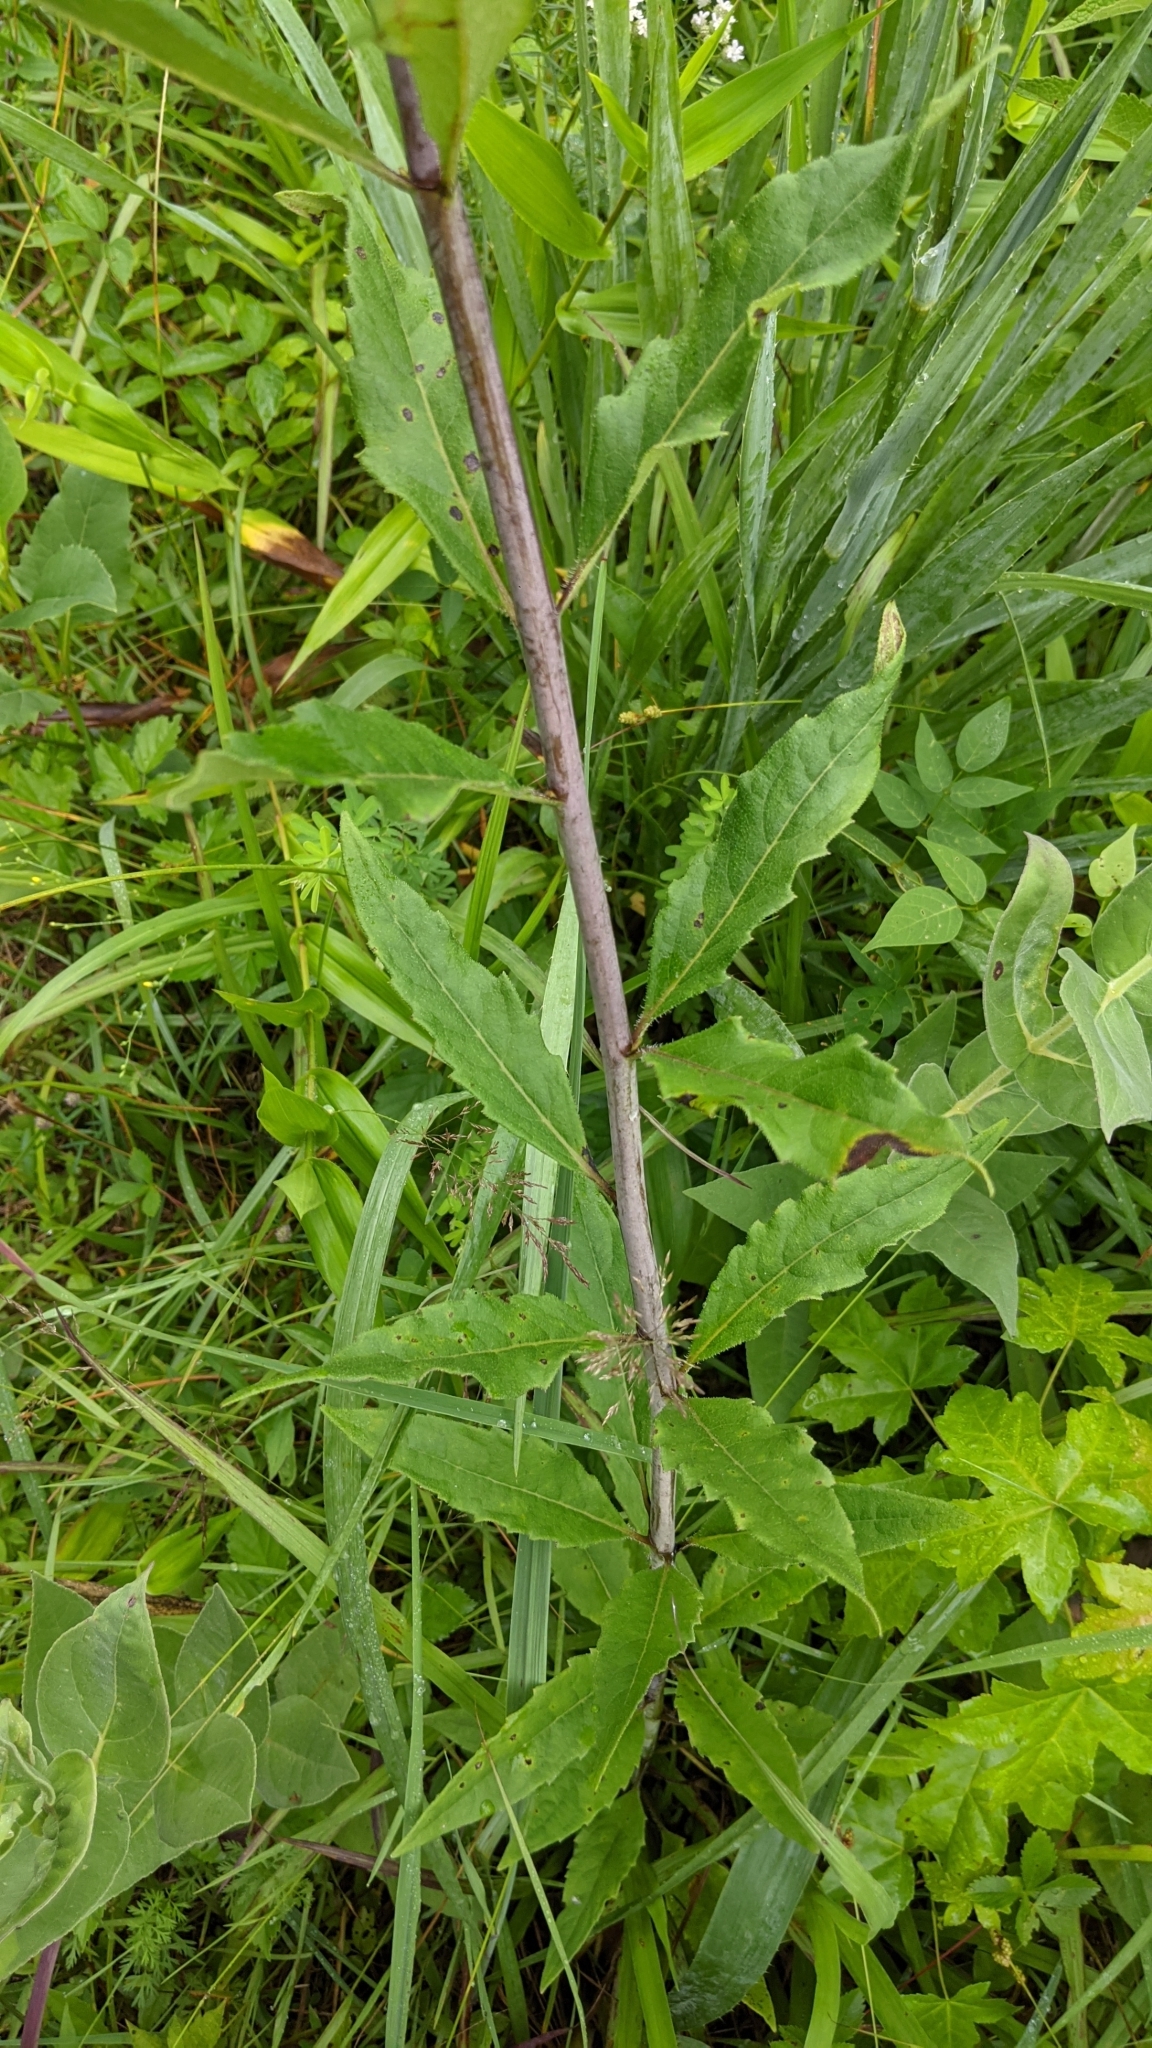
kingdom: Plantae
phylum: Tracheophyta
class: Magnoliopsida
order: Asterales
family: Asteraceae
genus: Silphium
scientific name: Silphium asteriscus
